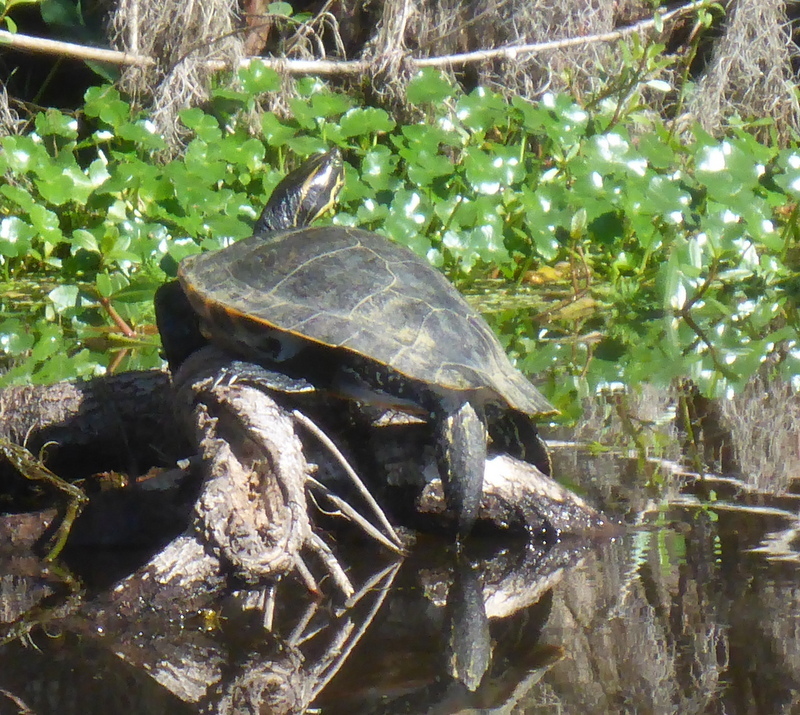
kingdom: Animalia
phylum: Chordata
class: Testudines
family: Emydidae
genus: Pseudemys
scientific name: Pseudemys concinna
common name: Eastern river cooter
